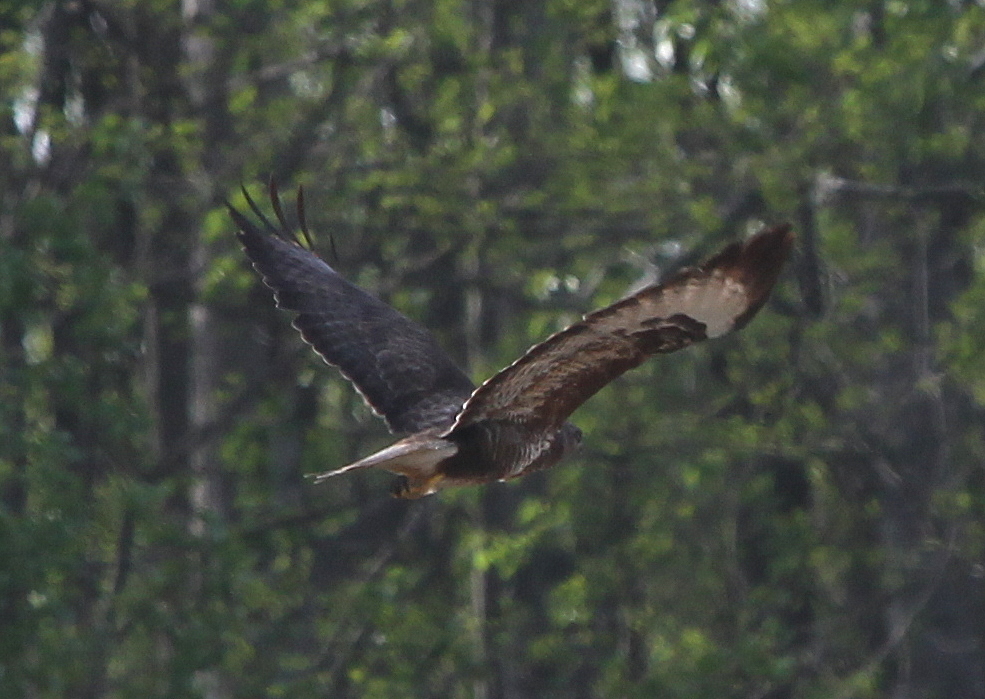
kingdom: Animalia
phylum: Chordata
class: Aves
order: Accipitriformes
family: Accipitridae
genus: Buteo
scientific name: Buteo buteo
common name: Common buzzard
